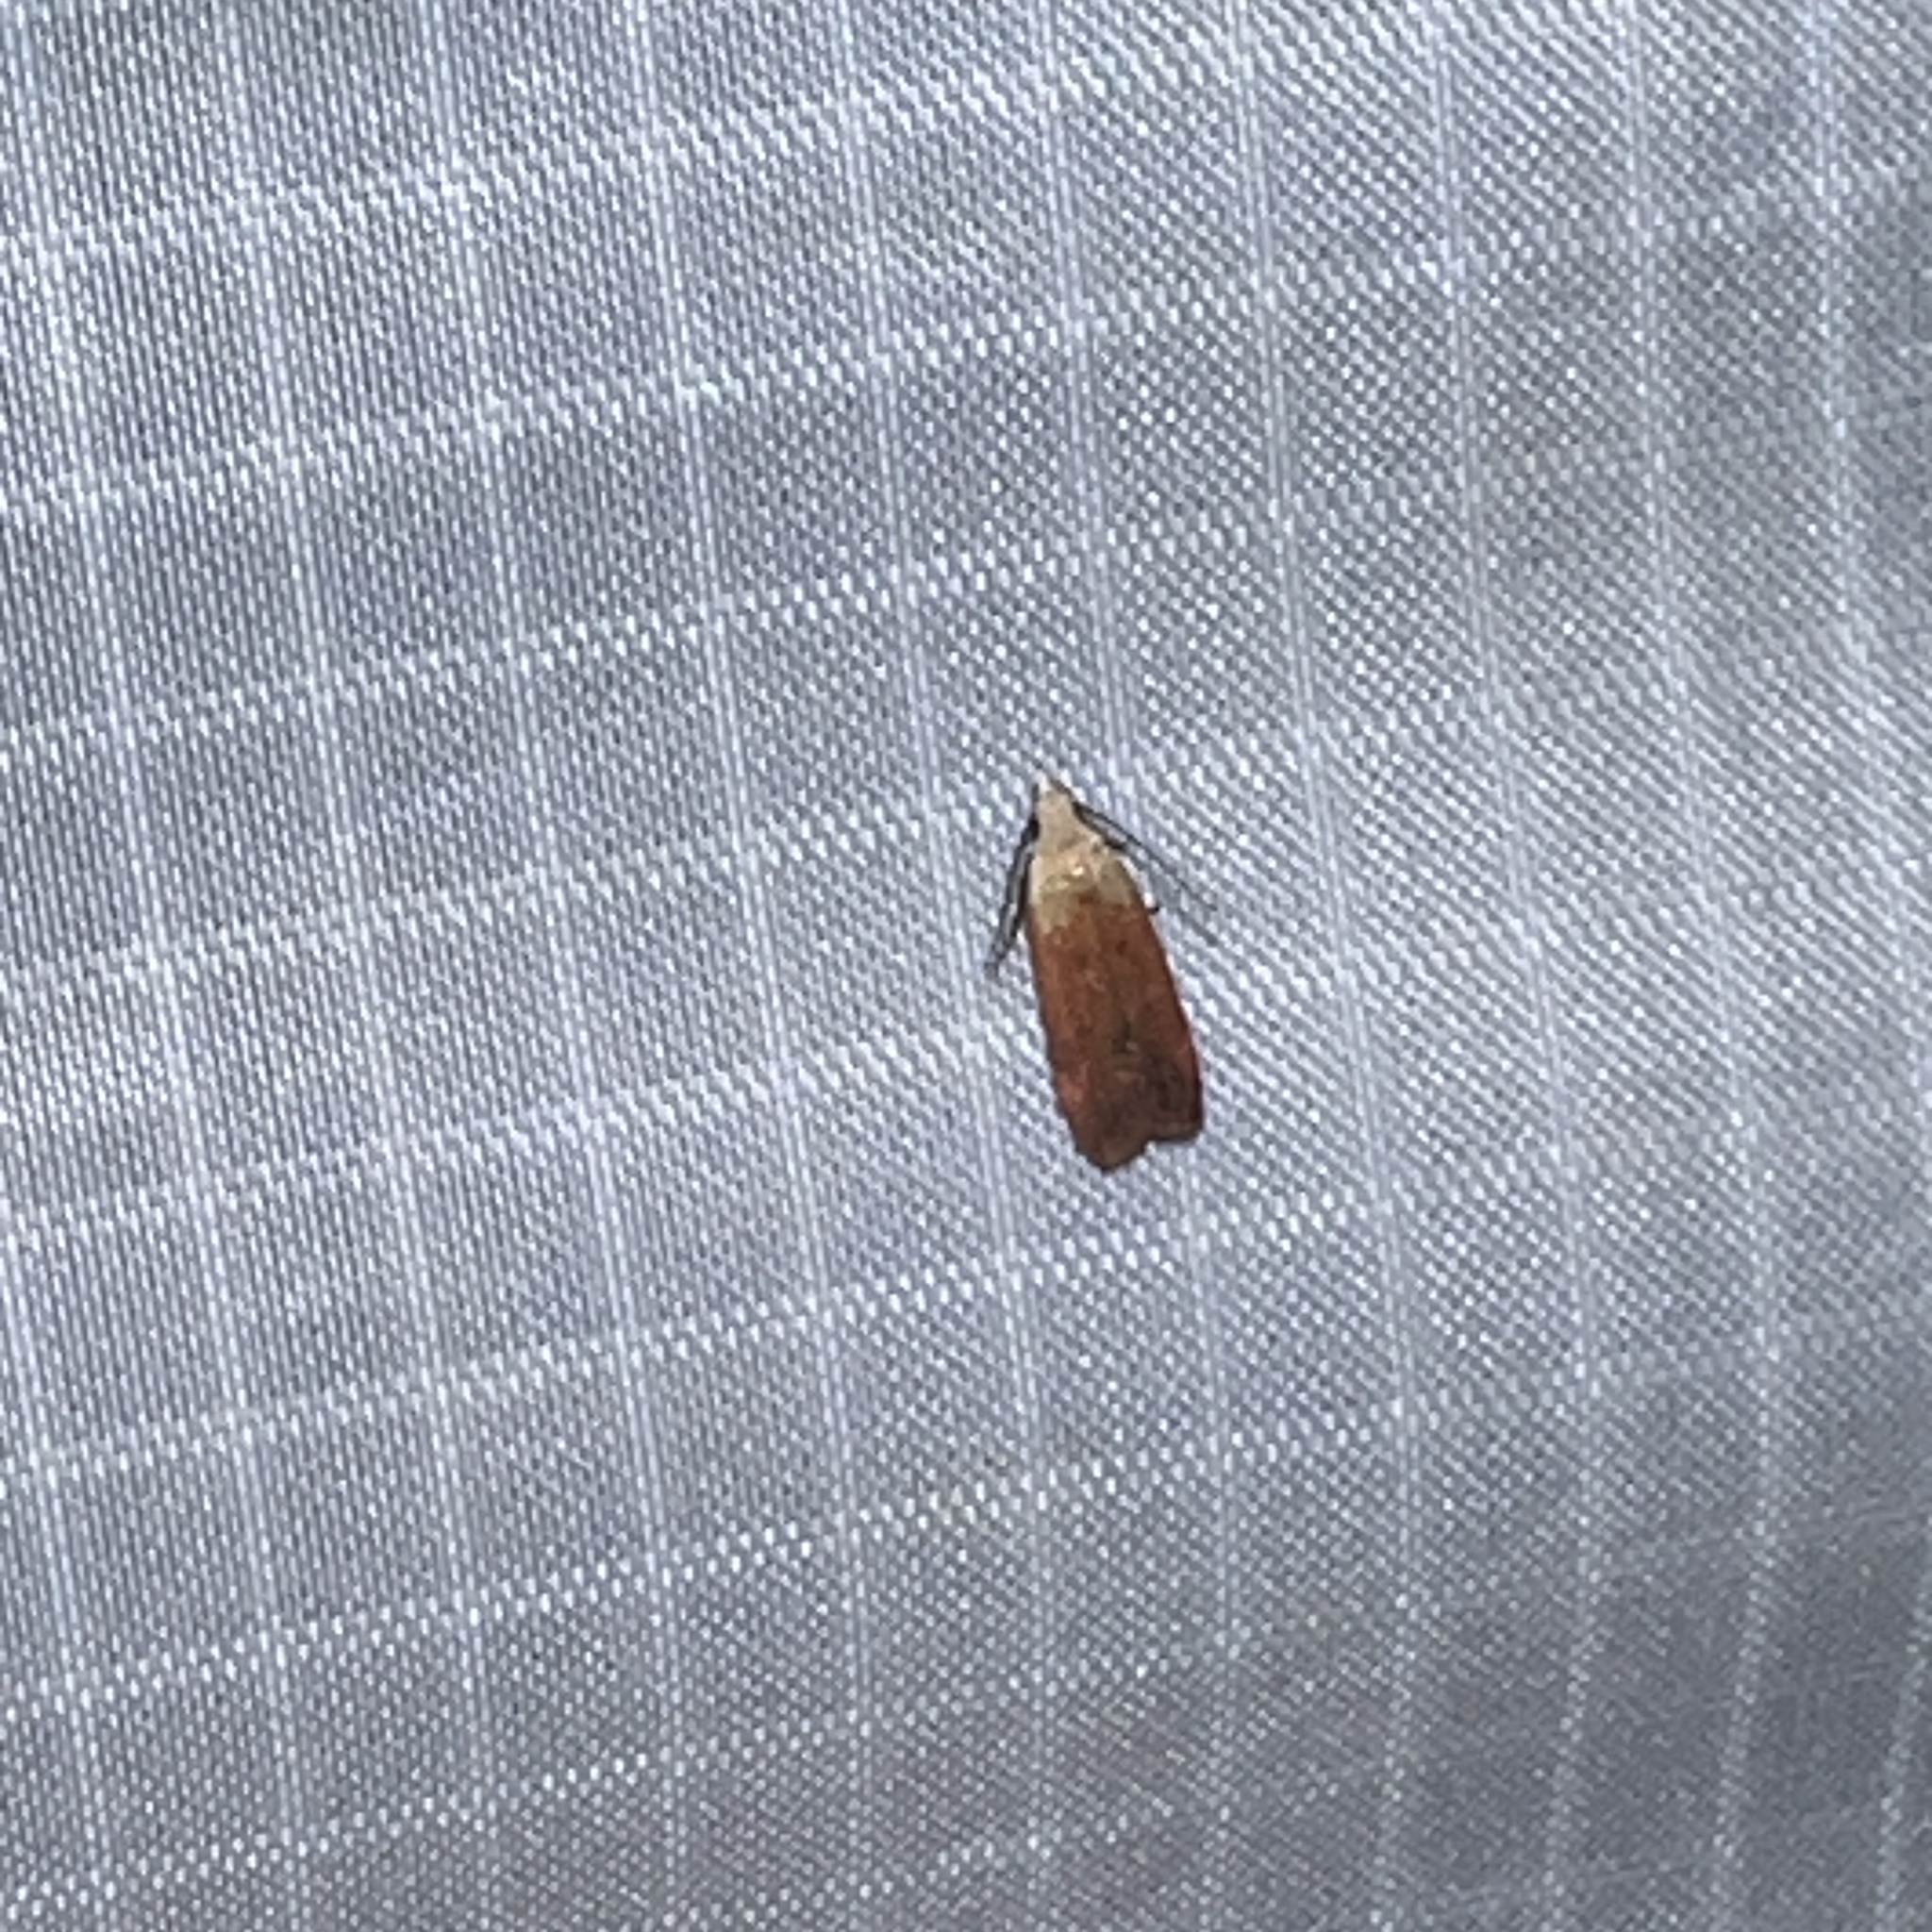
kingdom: Animalia
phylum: Arthropoda
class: Insecta
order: Lepidoptera
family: Gelechiidae
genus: Anacampsis
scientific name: Anacampsis fullonella
